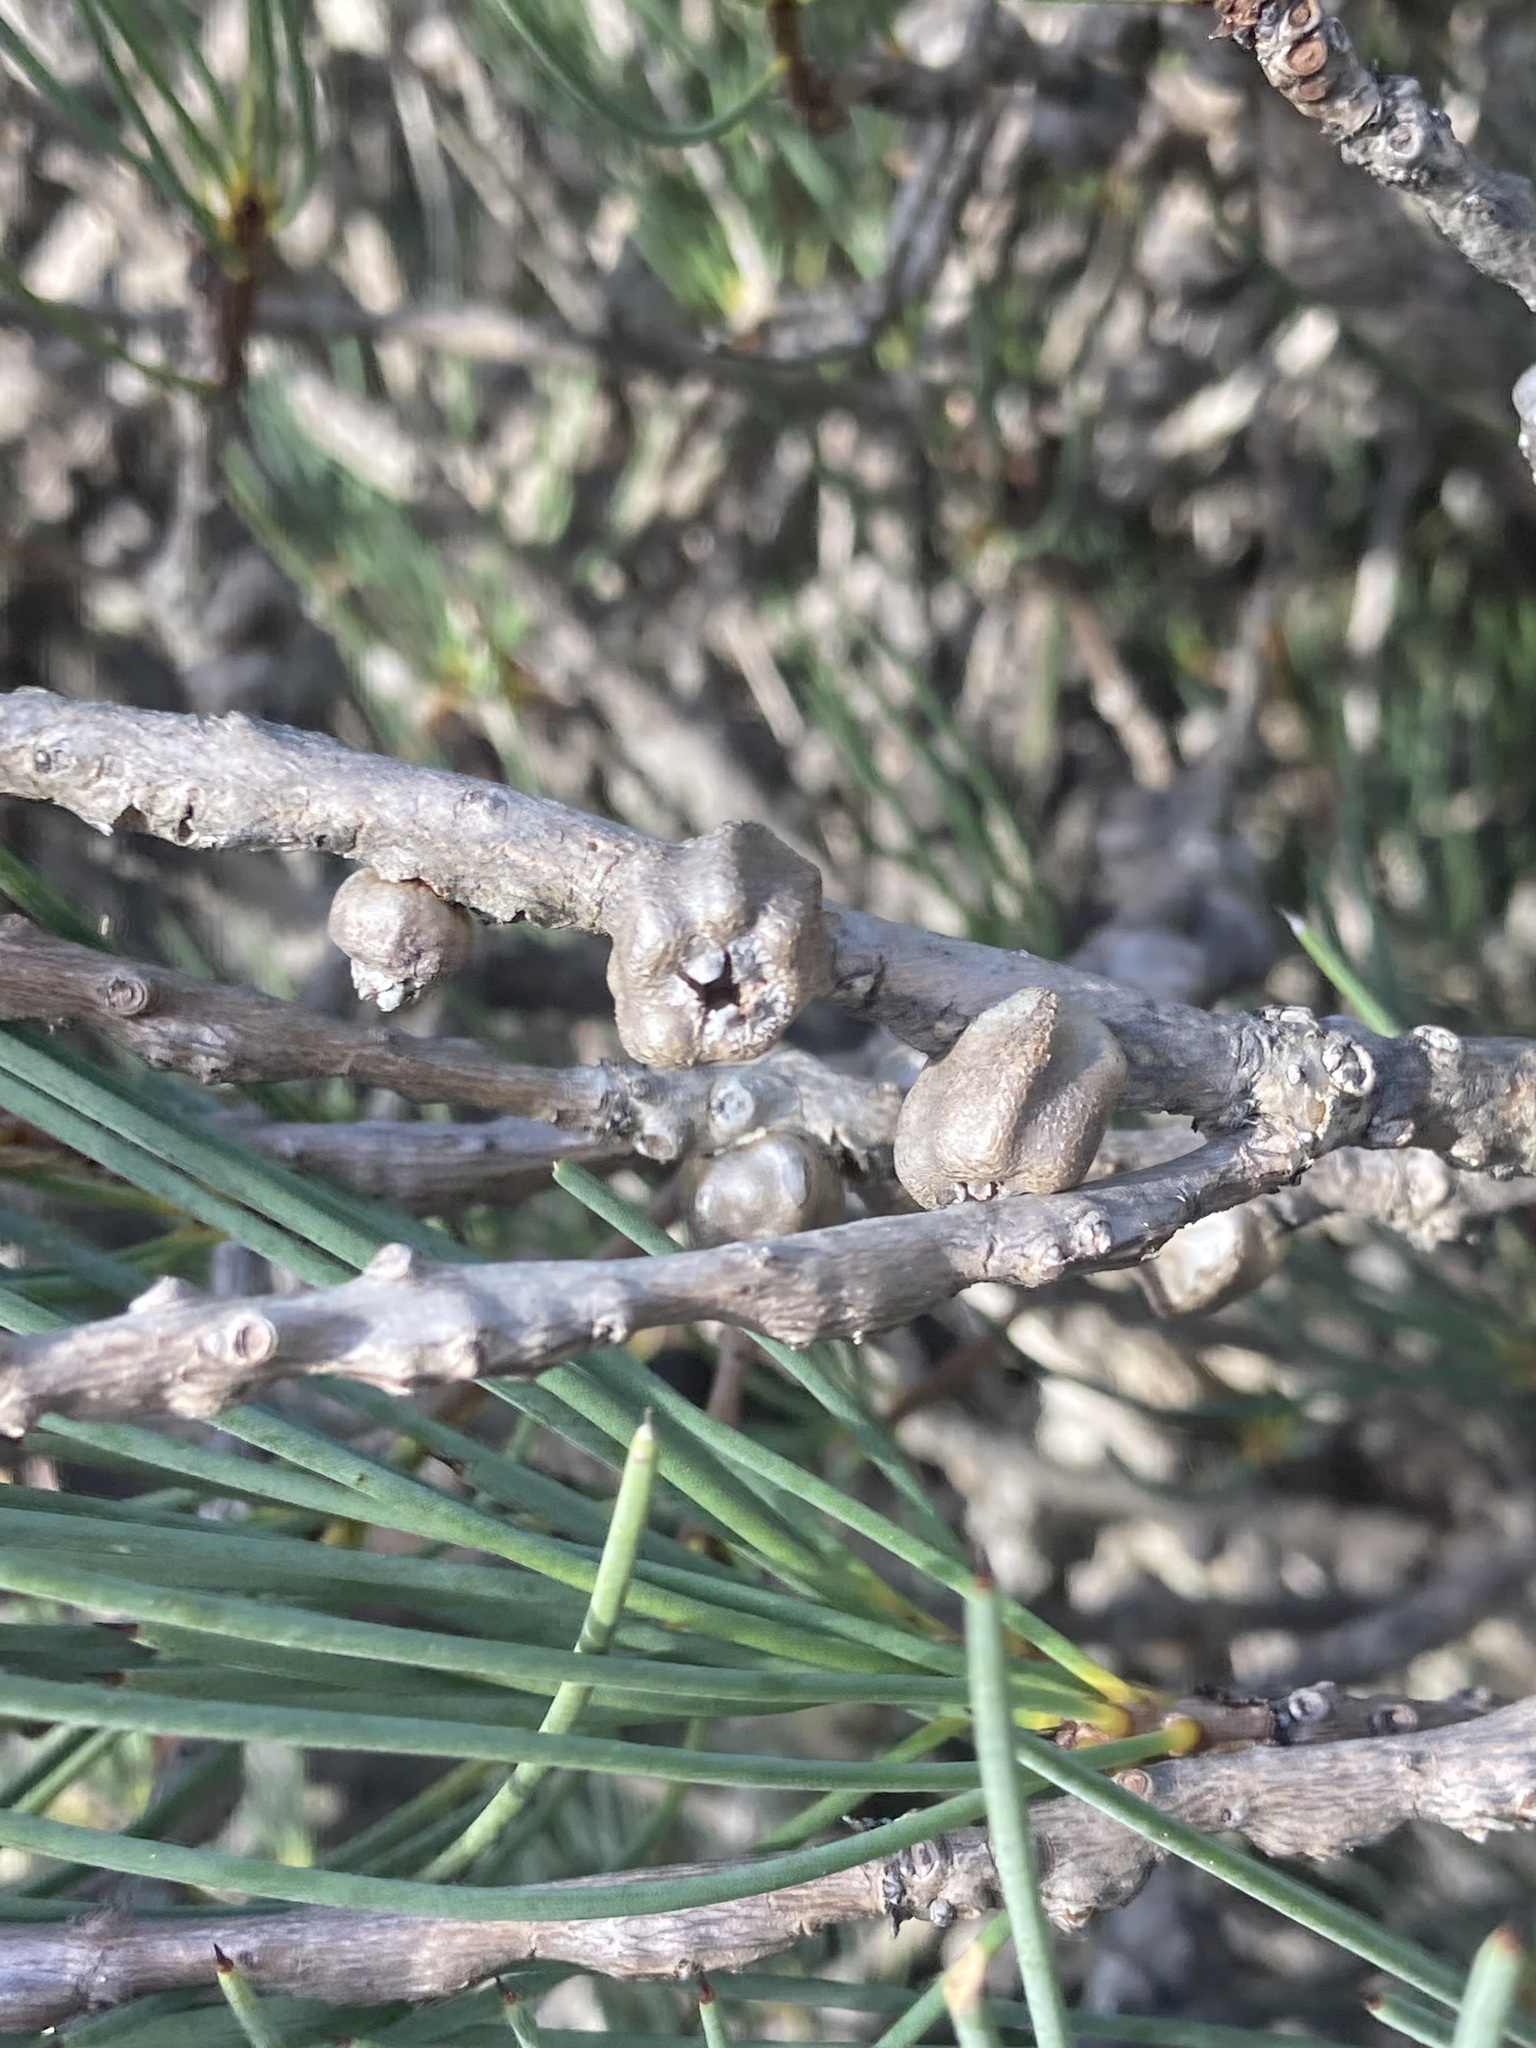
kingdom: Plantae
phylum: Tracheophyta
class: Magnoliopsida
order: Myrtales
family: Myrtaceae
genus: Melaleuca
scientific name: Melaleuca gracilis
